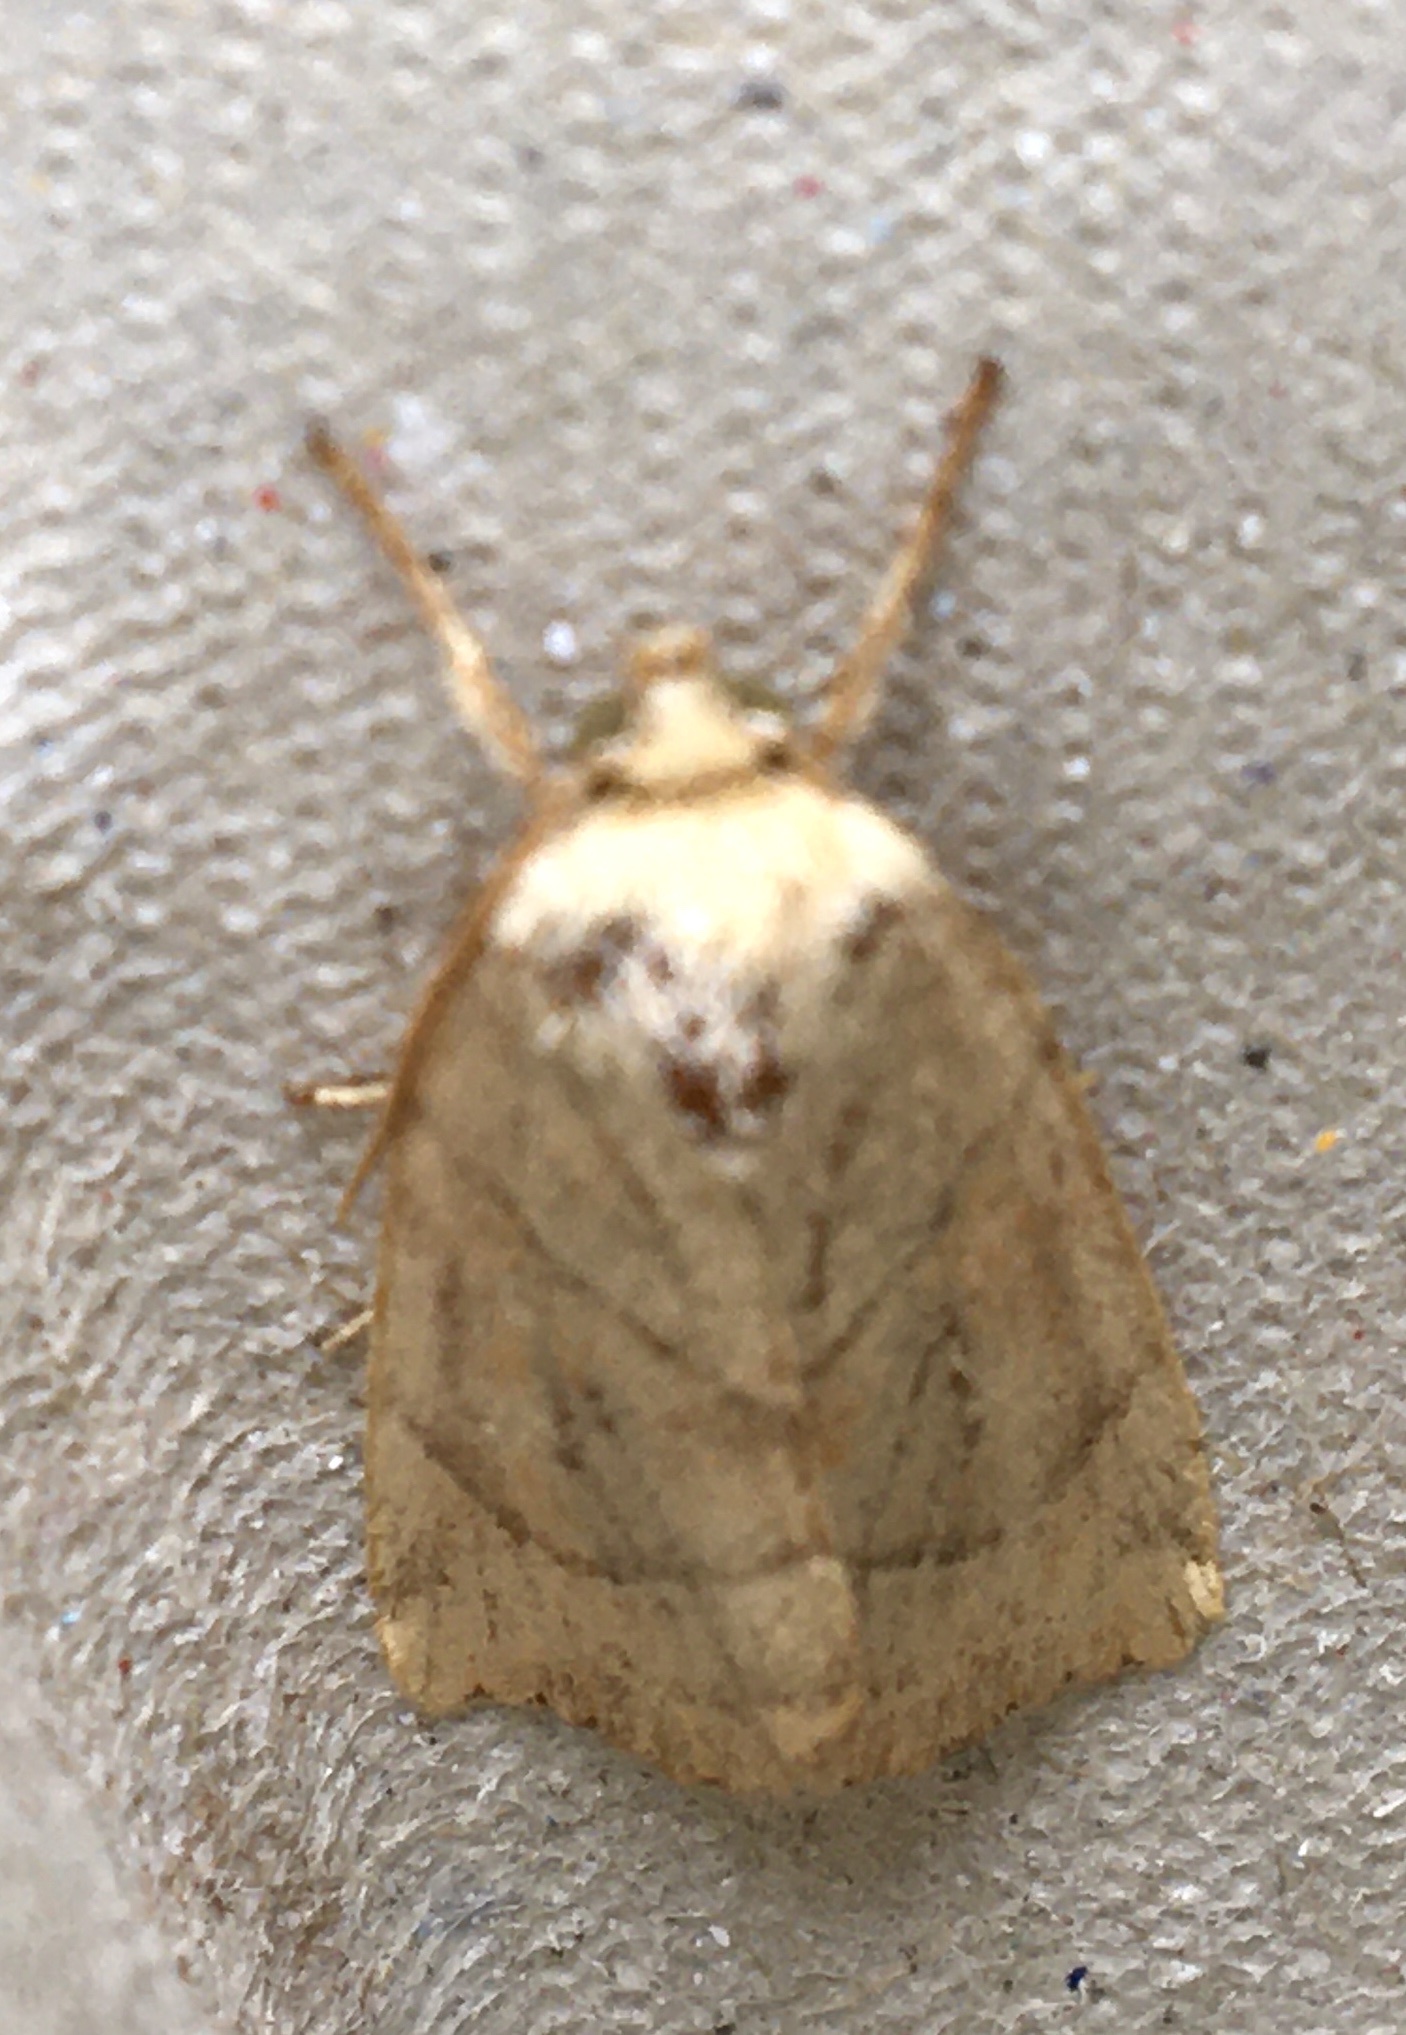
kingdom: Animalia
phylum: Arthropoda
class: Insecta
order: Lepidoptera
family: Noctuidae
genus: Cosmia
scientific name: Cosmia trapezina
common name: Dun-bar
